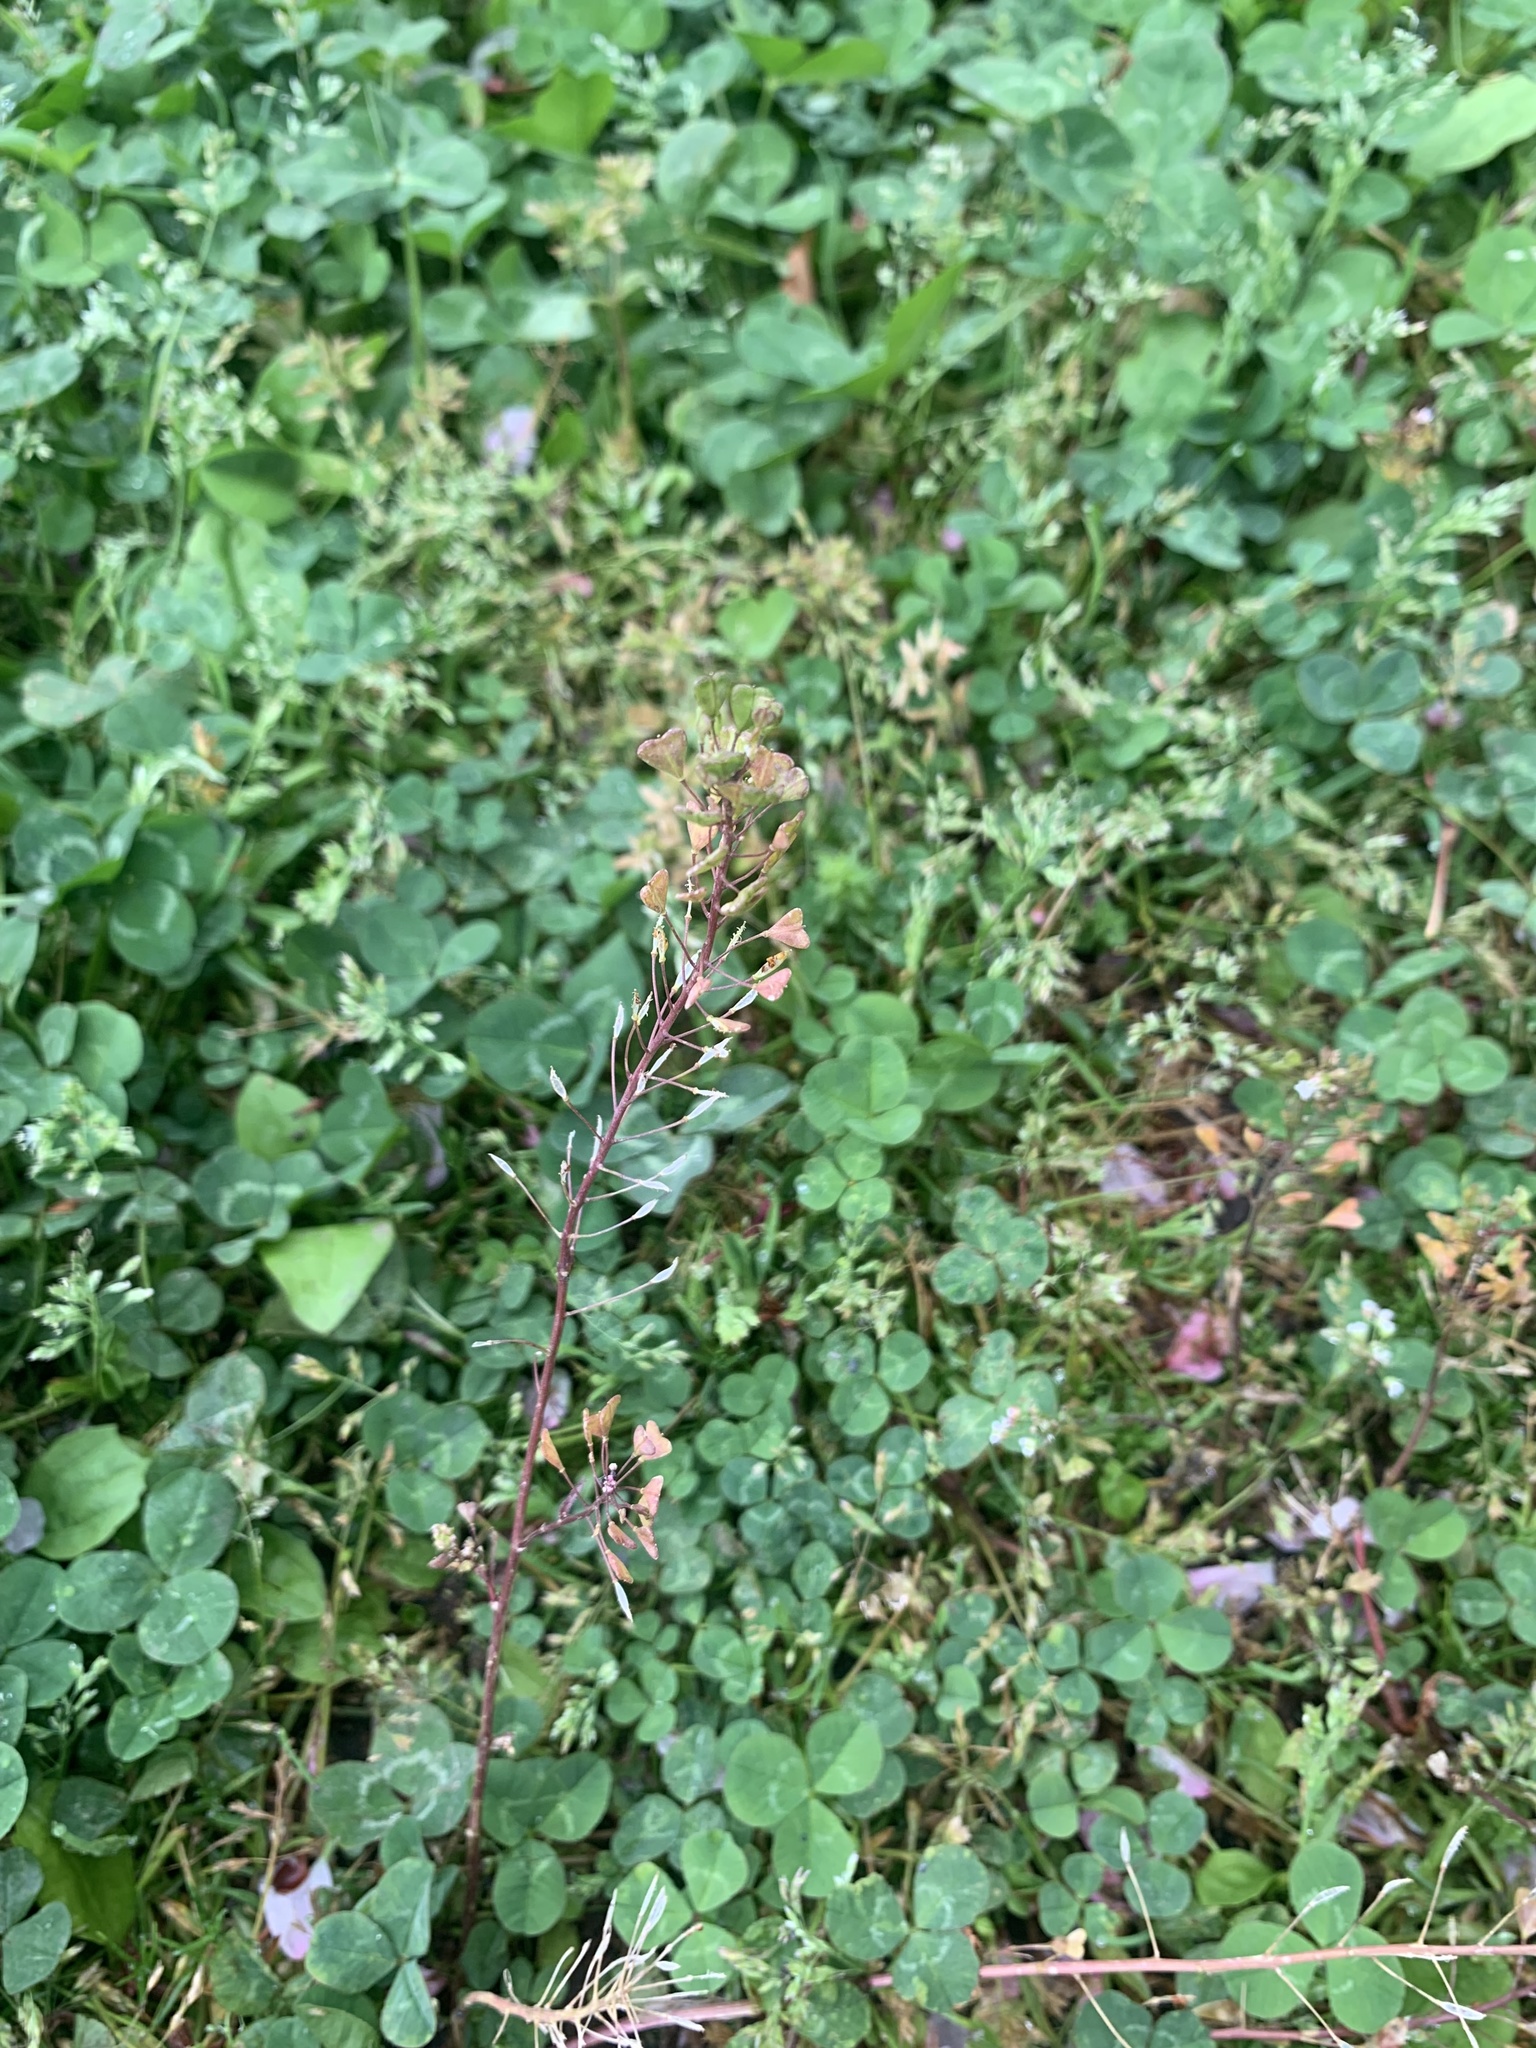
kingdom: Plantae
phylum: Tracheophyta
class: Magnoliopsida
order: Brassicales
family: Brassicaceae
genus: Capsella
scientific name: Capsella bursa-pastoris
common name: Shepherd's purse
